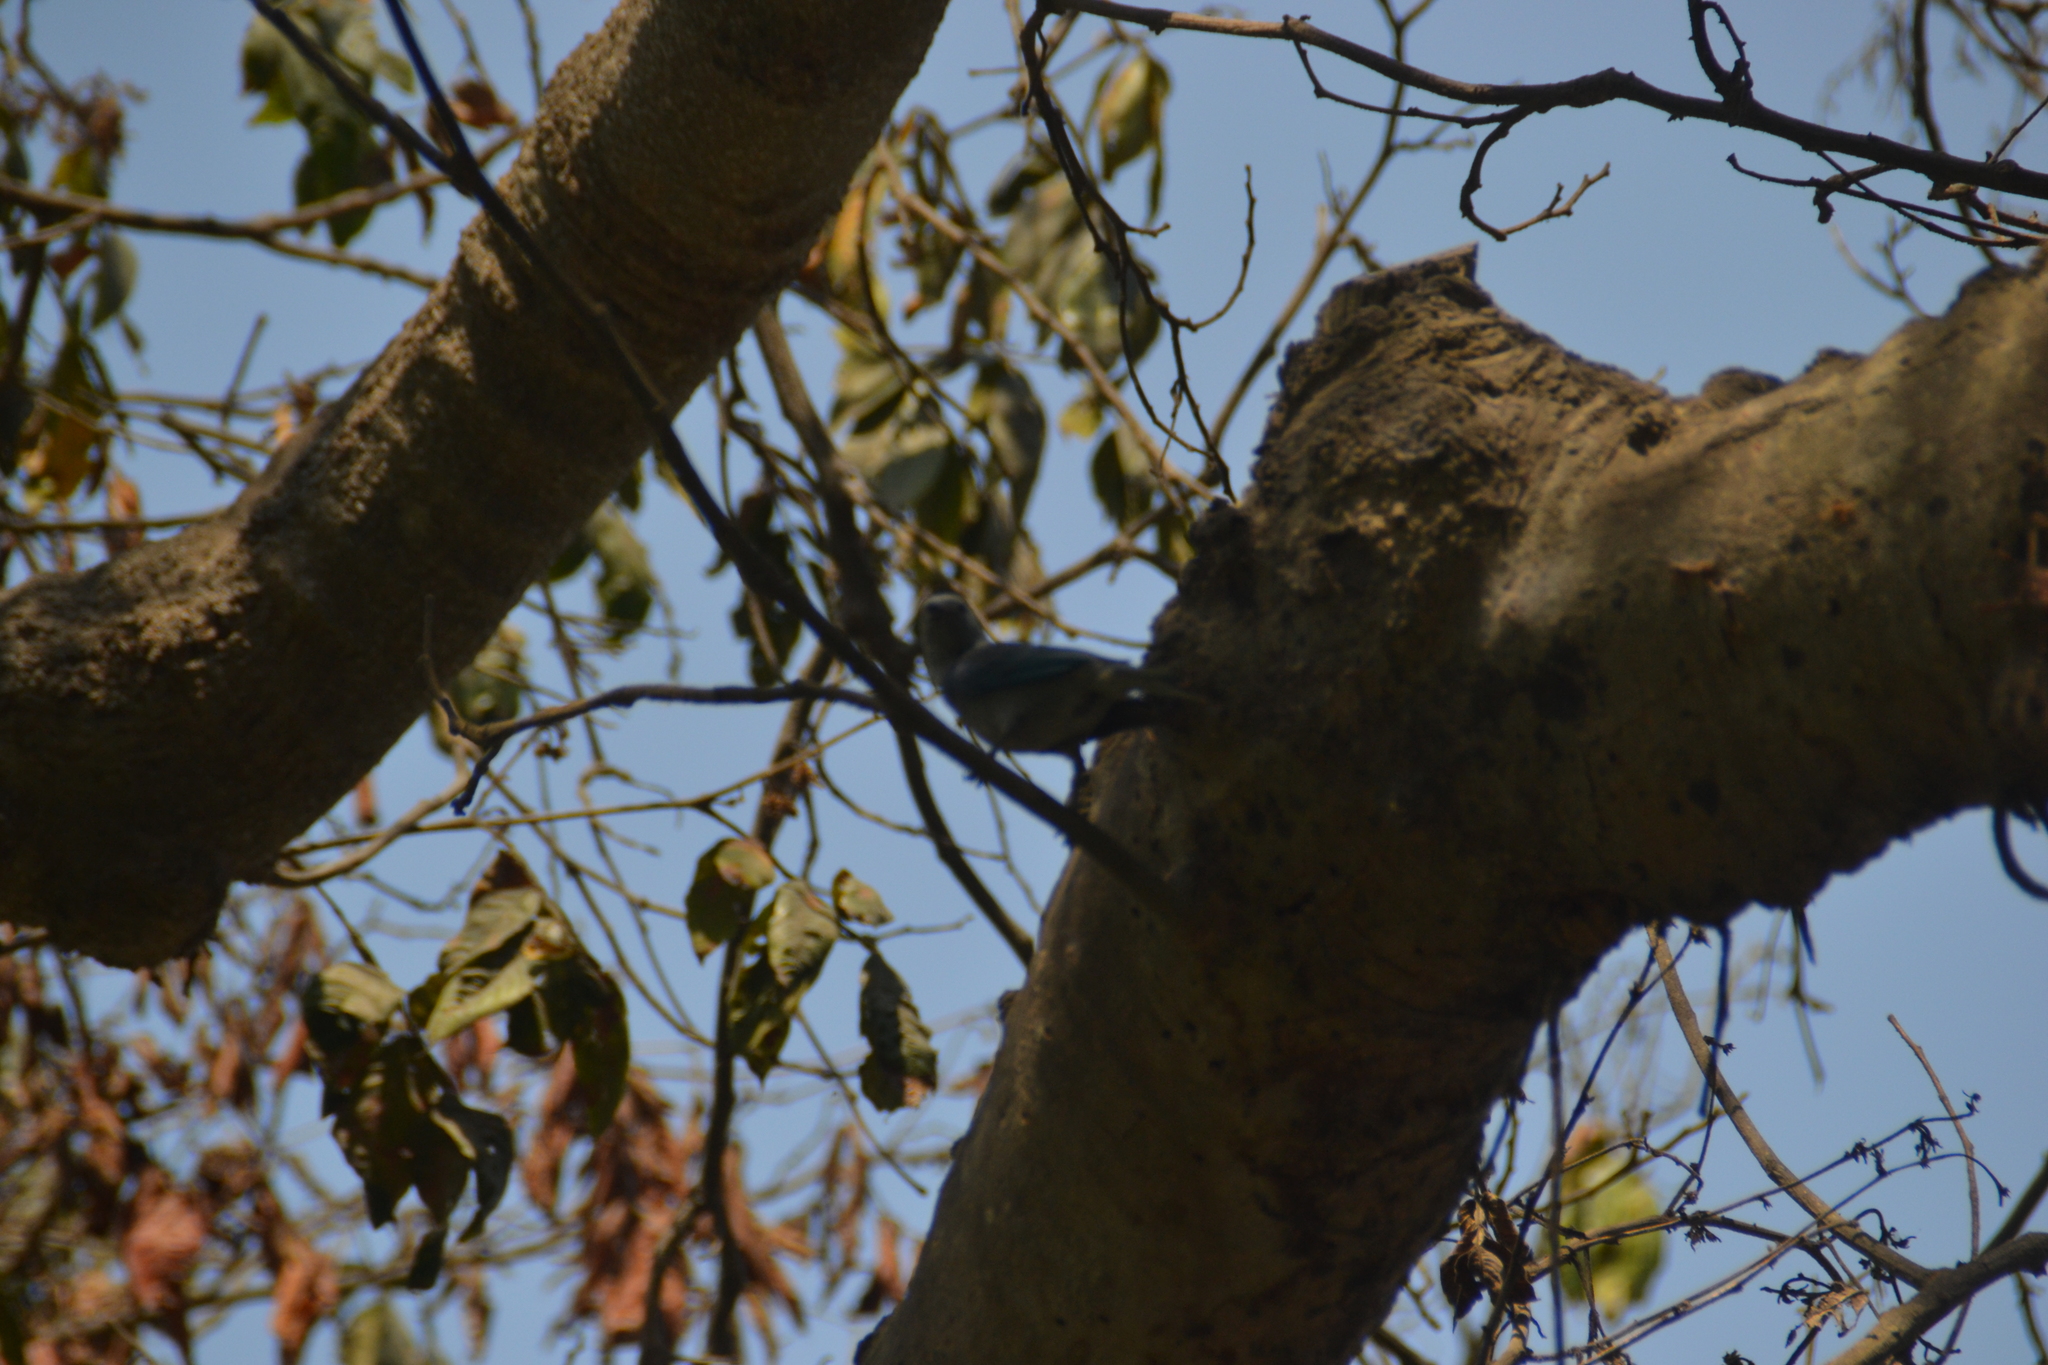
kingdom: Animalia
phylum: Chordata
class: Aves
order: Passeriformes
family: Thraupidae
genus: Thraupis
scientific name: Thraupis episcopus
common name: Blue-grey tanager
